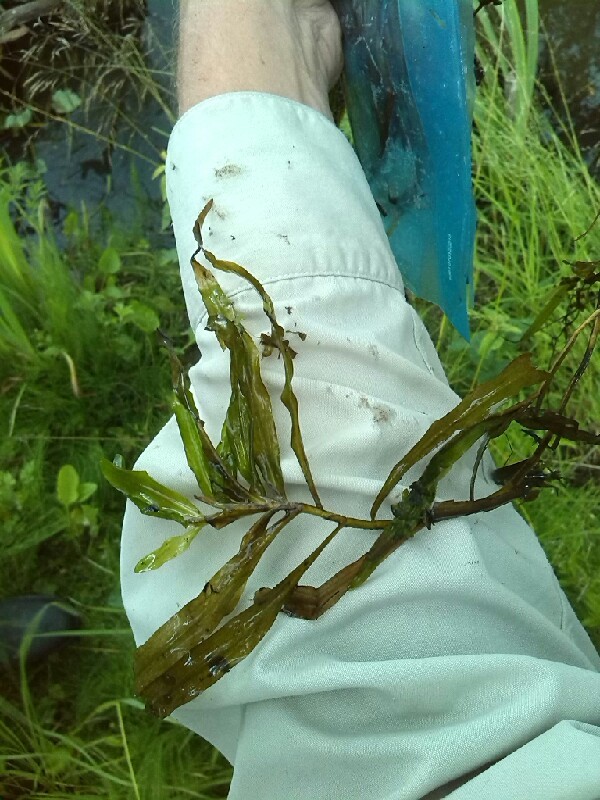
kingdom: Plantae
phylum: Tracheophyta
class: Liliopsida
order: Alismatales
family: Potamogetonaceae
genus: Potamogeton
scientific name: Potamogeton alpinus
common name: Red pondweed
